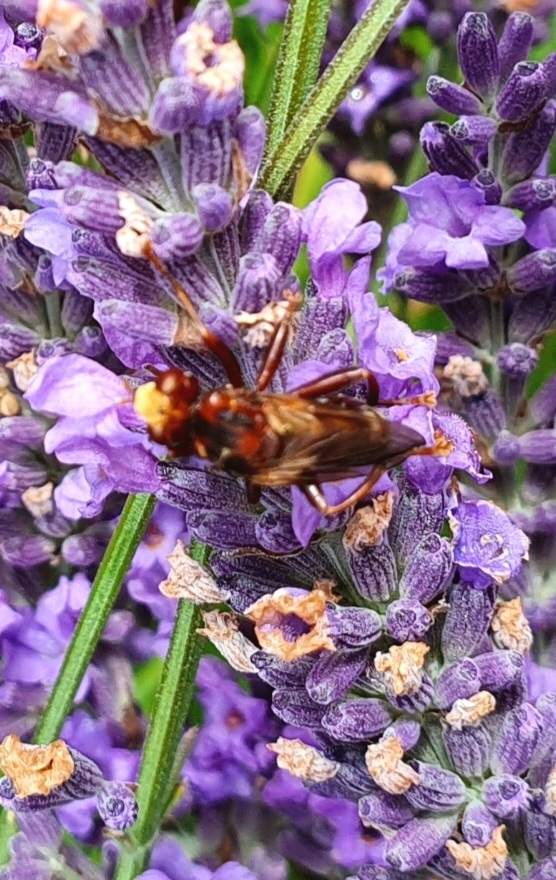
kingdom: Animalia
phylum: Arthropoda
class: Insecta
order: Diptera
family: Conopidae
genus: Sicus
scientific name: Sicus ferrugineus
